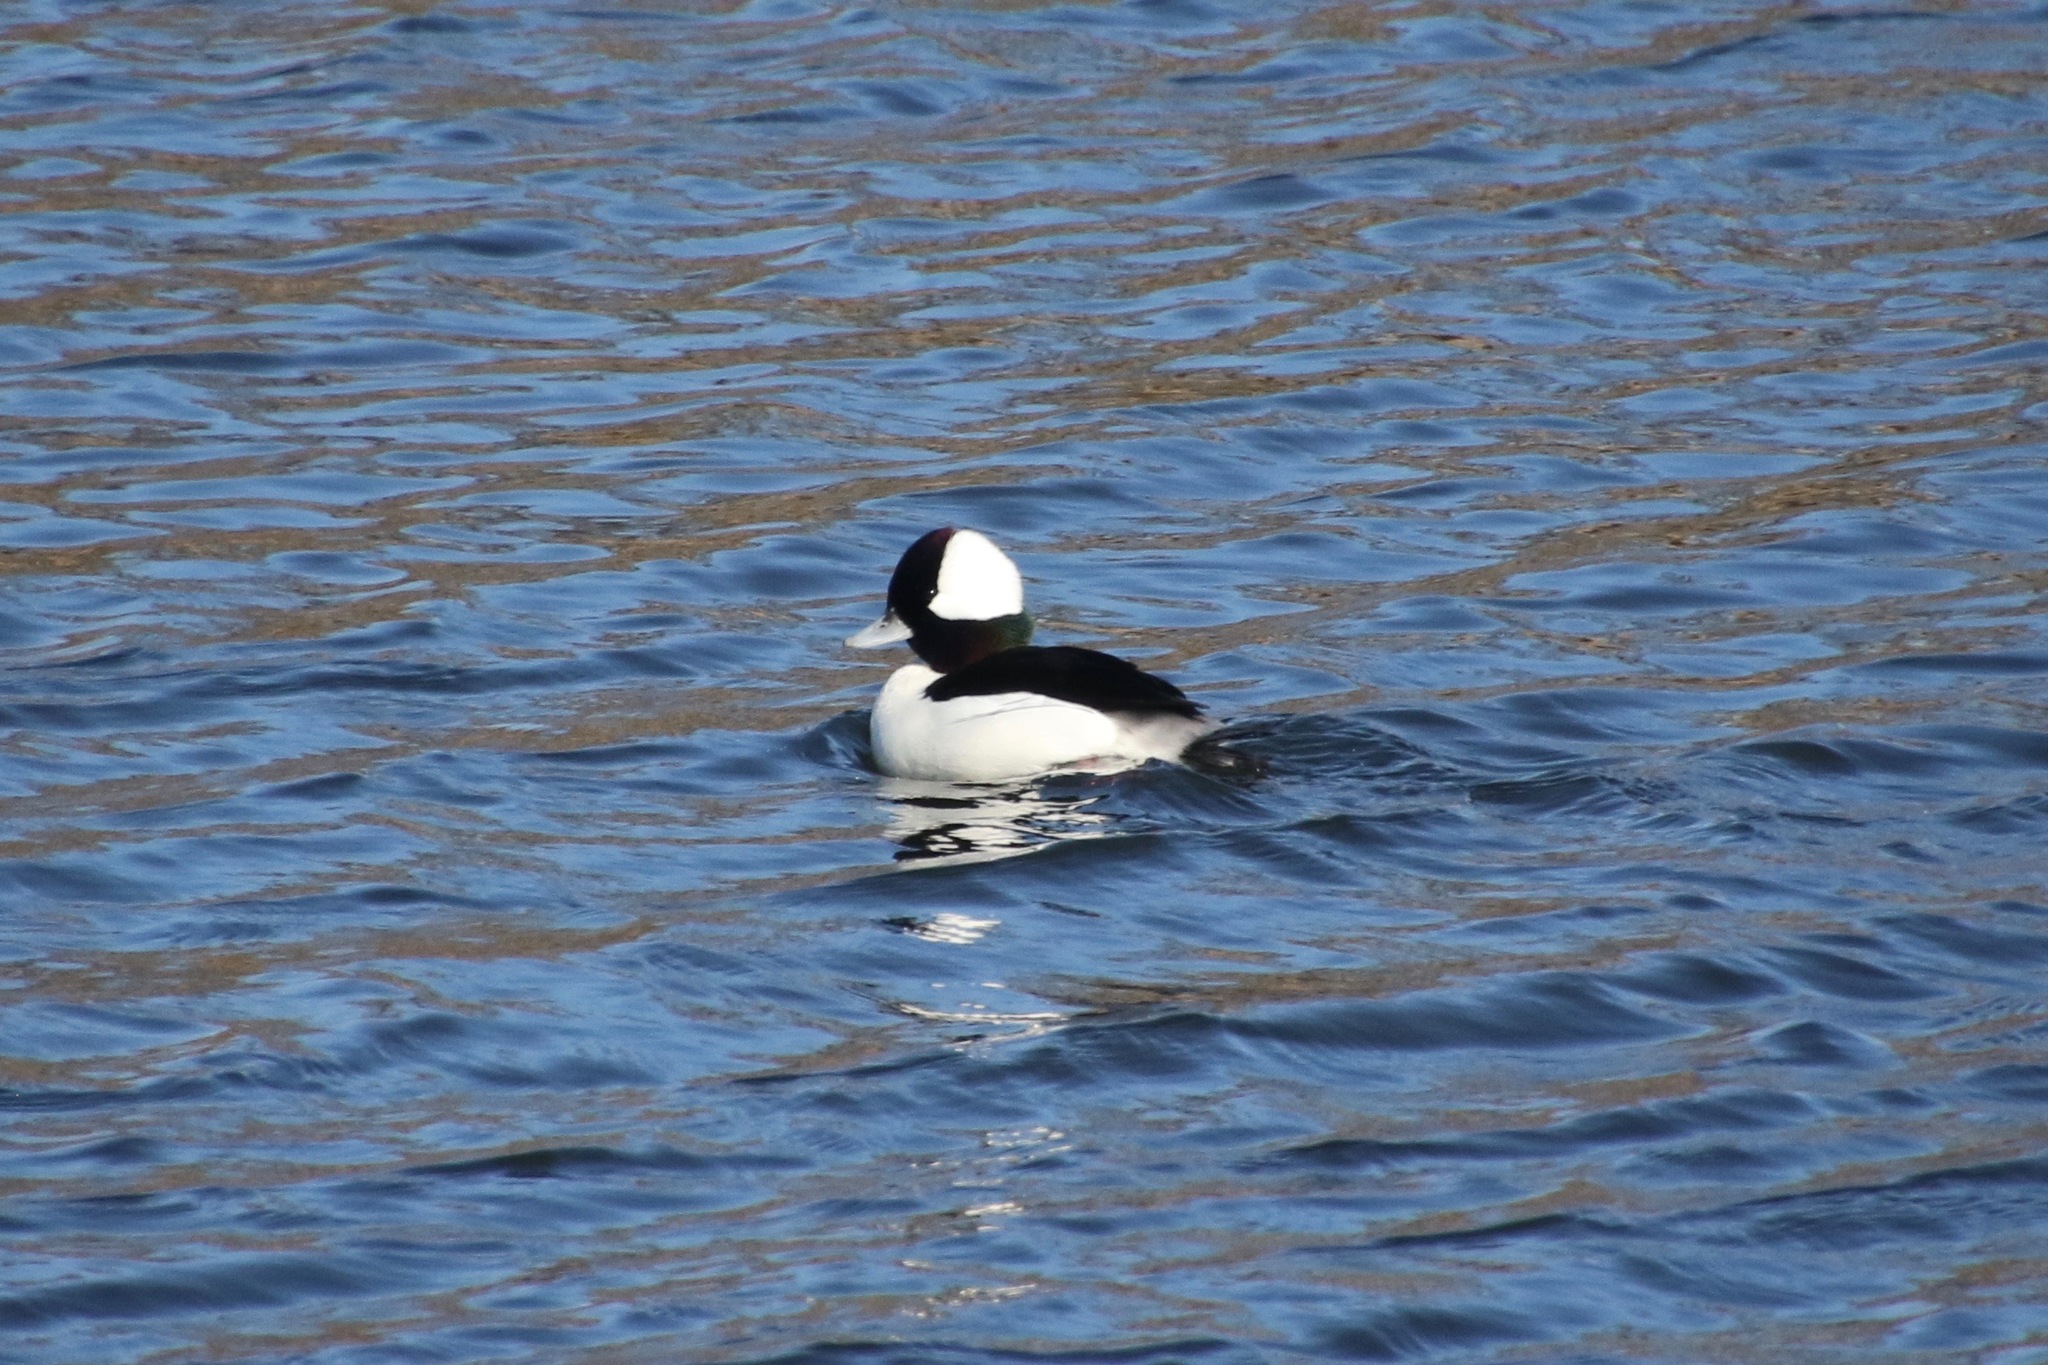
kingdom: Animalia
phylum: Chordata
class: Aves
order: Anseriformes
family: Anatidae
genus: Bucephala
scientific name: Bucephala albeola
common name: Bufflehead
